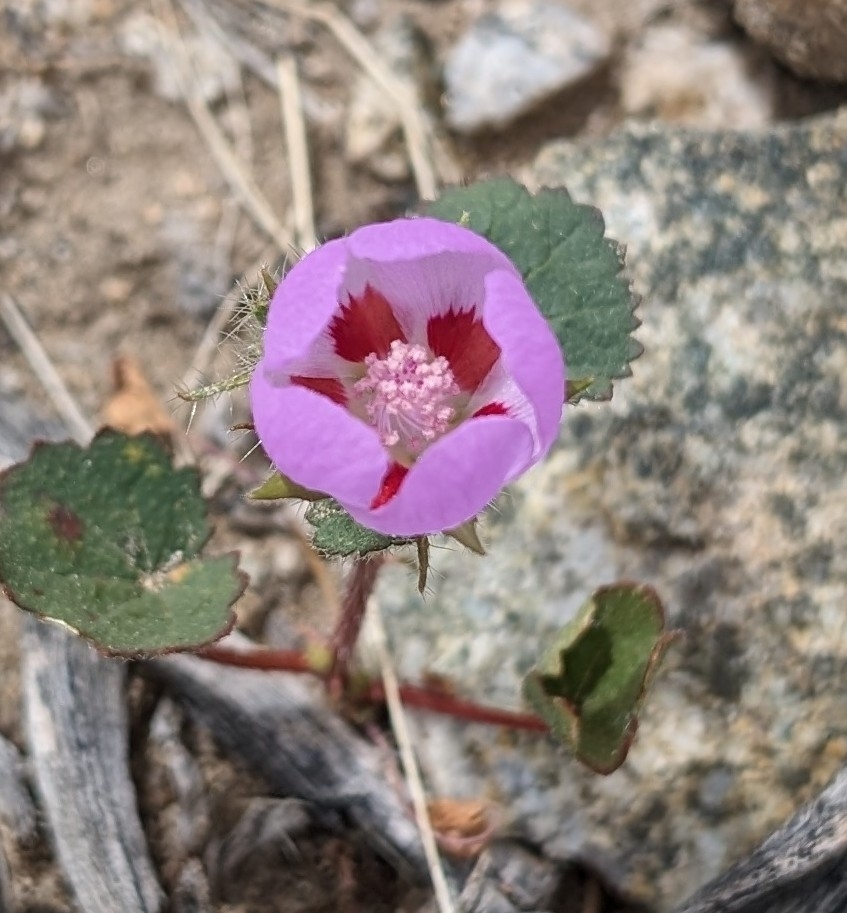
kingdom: Plantae
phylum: Tracheophyta
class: Magnoliopsida
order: Malvales
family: Malvaceae
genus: Eremalche
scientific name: Eremalche rotundifolia
